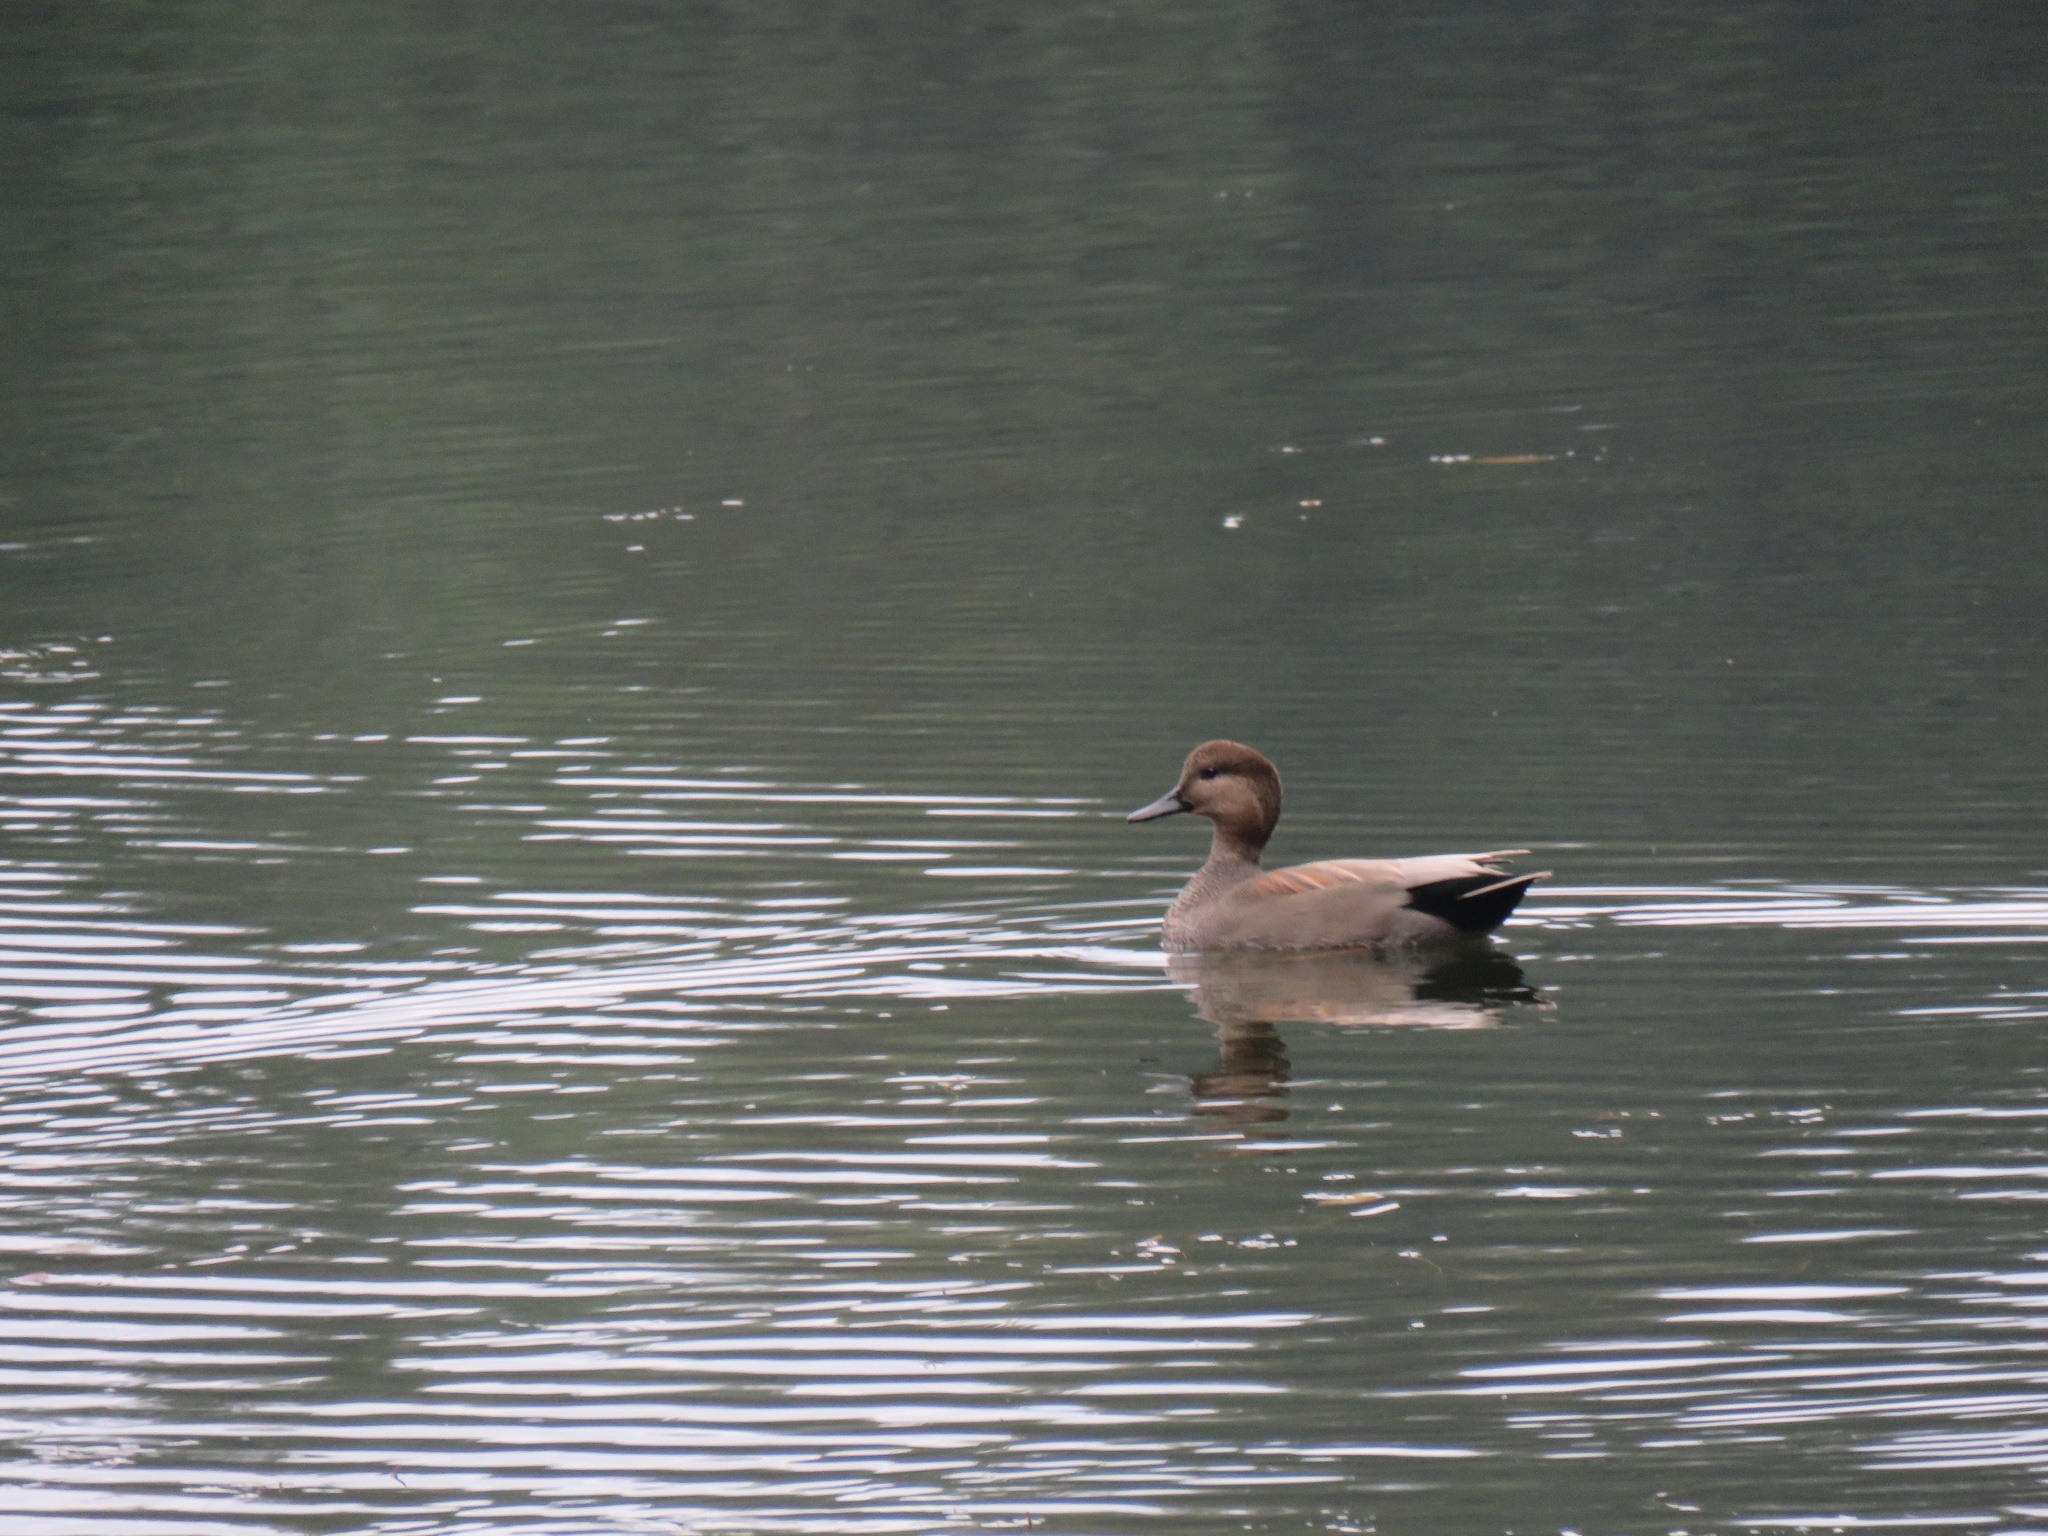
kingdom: Animalia
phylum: Chordata
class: Aves
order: Anseriformes
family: Anatidae
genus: Mareca
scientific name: Mareca strepera
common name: Gadwall
